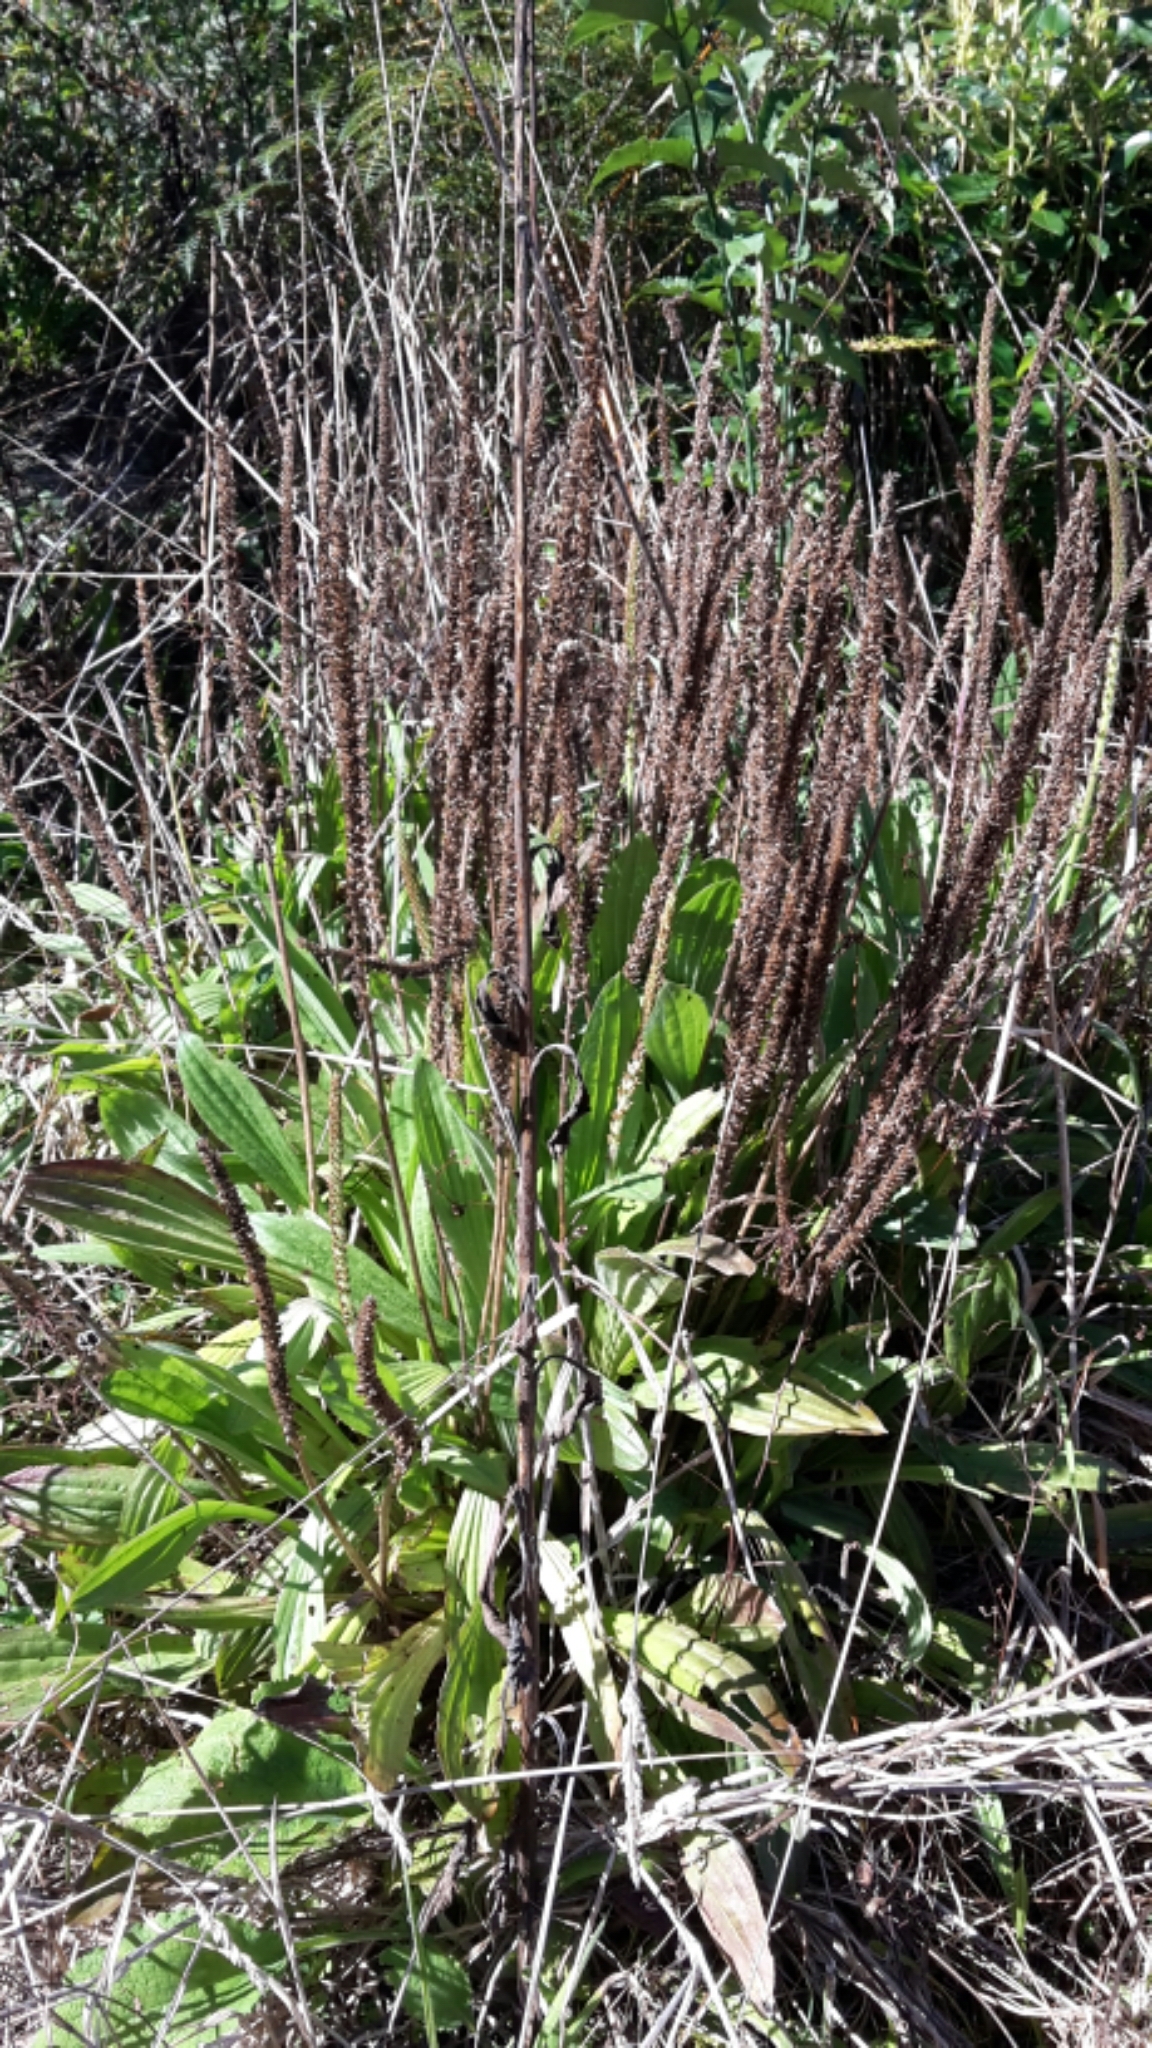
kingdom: Plantae
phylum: Tracheophyta
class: Magnoliopsida
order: Lamiales
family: Plantaginaceae
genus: Plantago
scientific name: Plantago lanceolata
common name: Ribwort plantain
